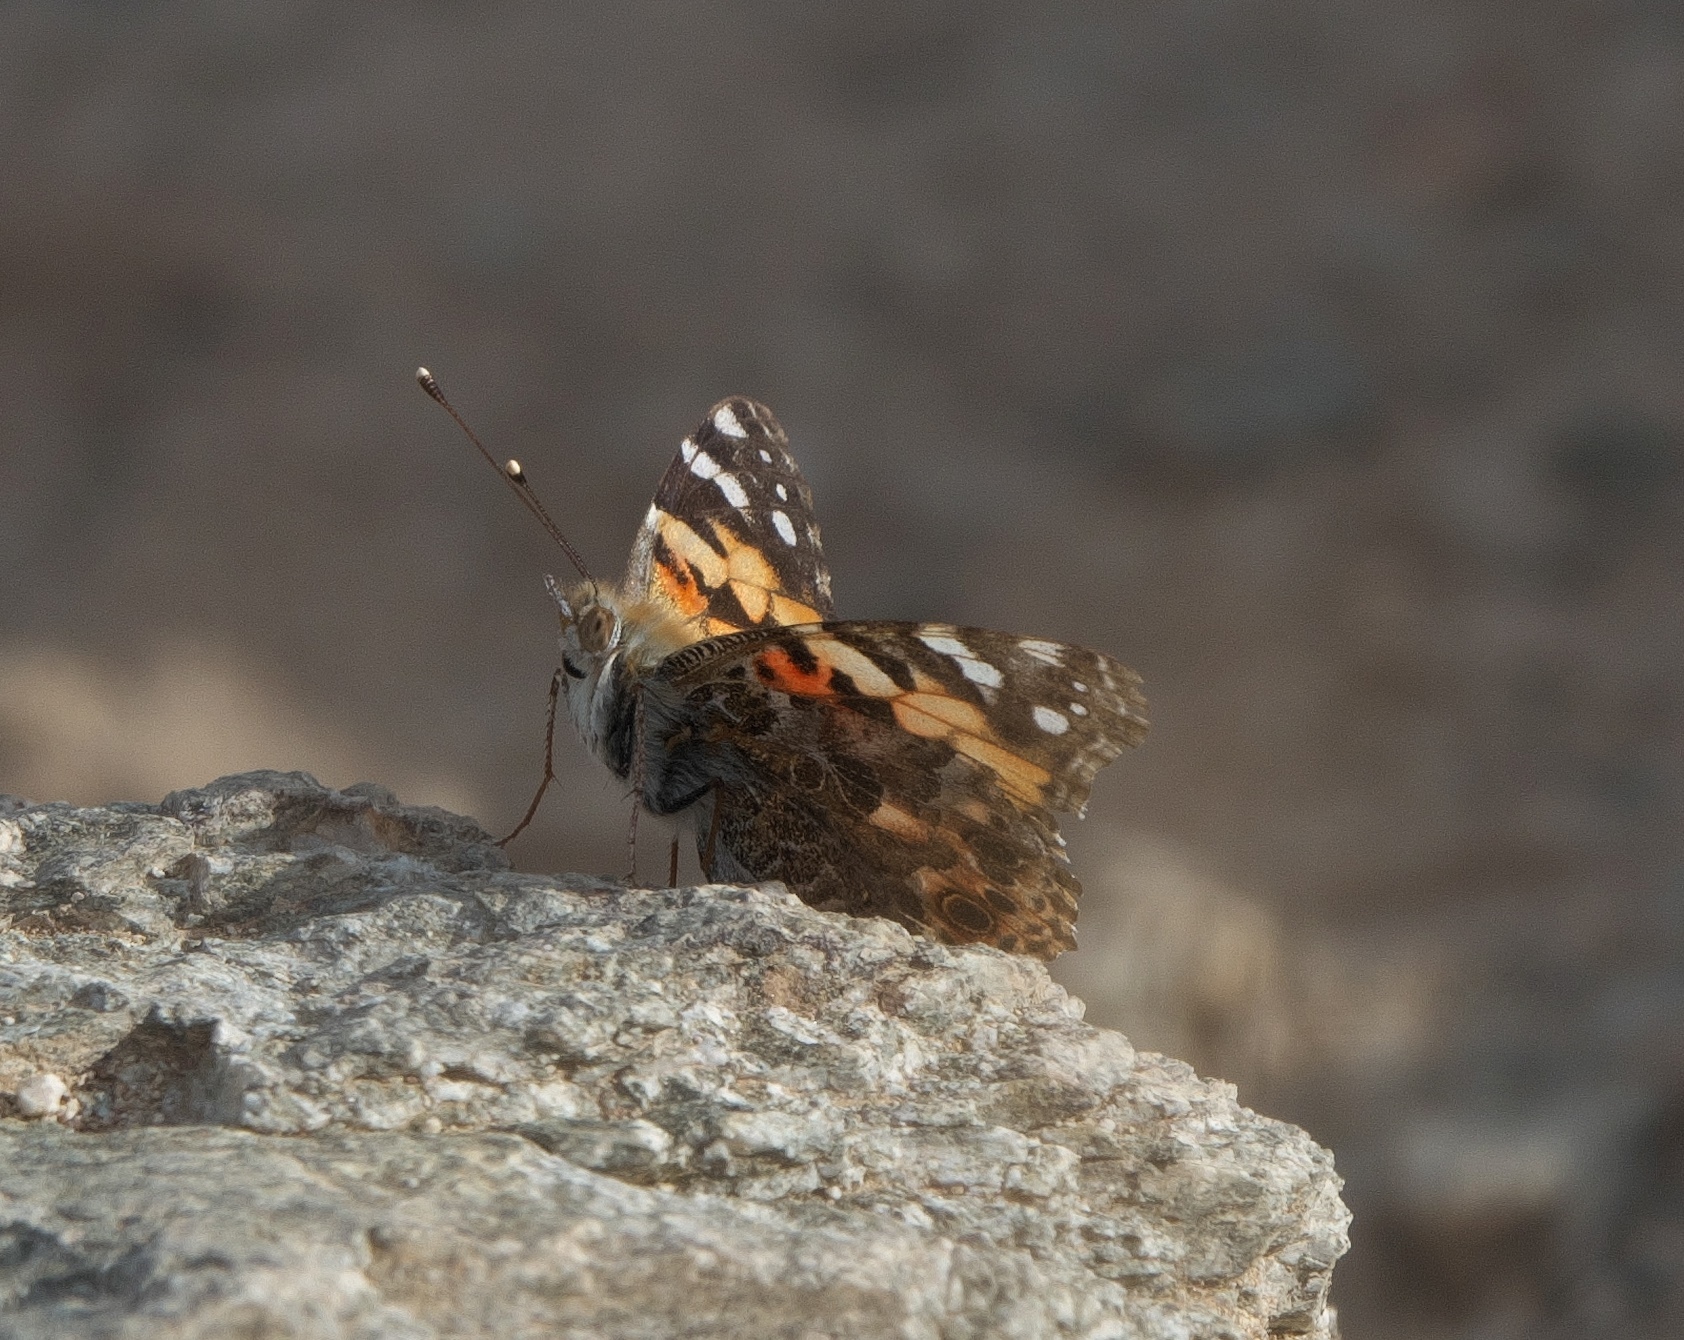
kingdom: Animalia
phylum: Arthropoda
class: Insecta
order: Lepidoptera
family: Nymphalidae
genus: Vanessa
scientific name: Vanessa cardui
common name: Painted lady
